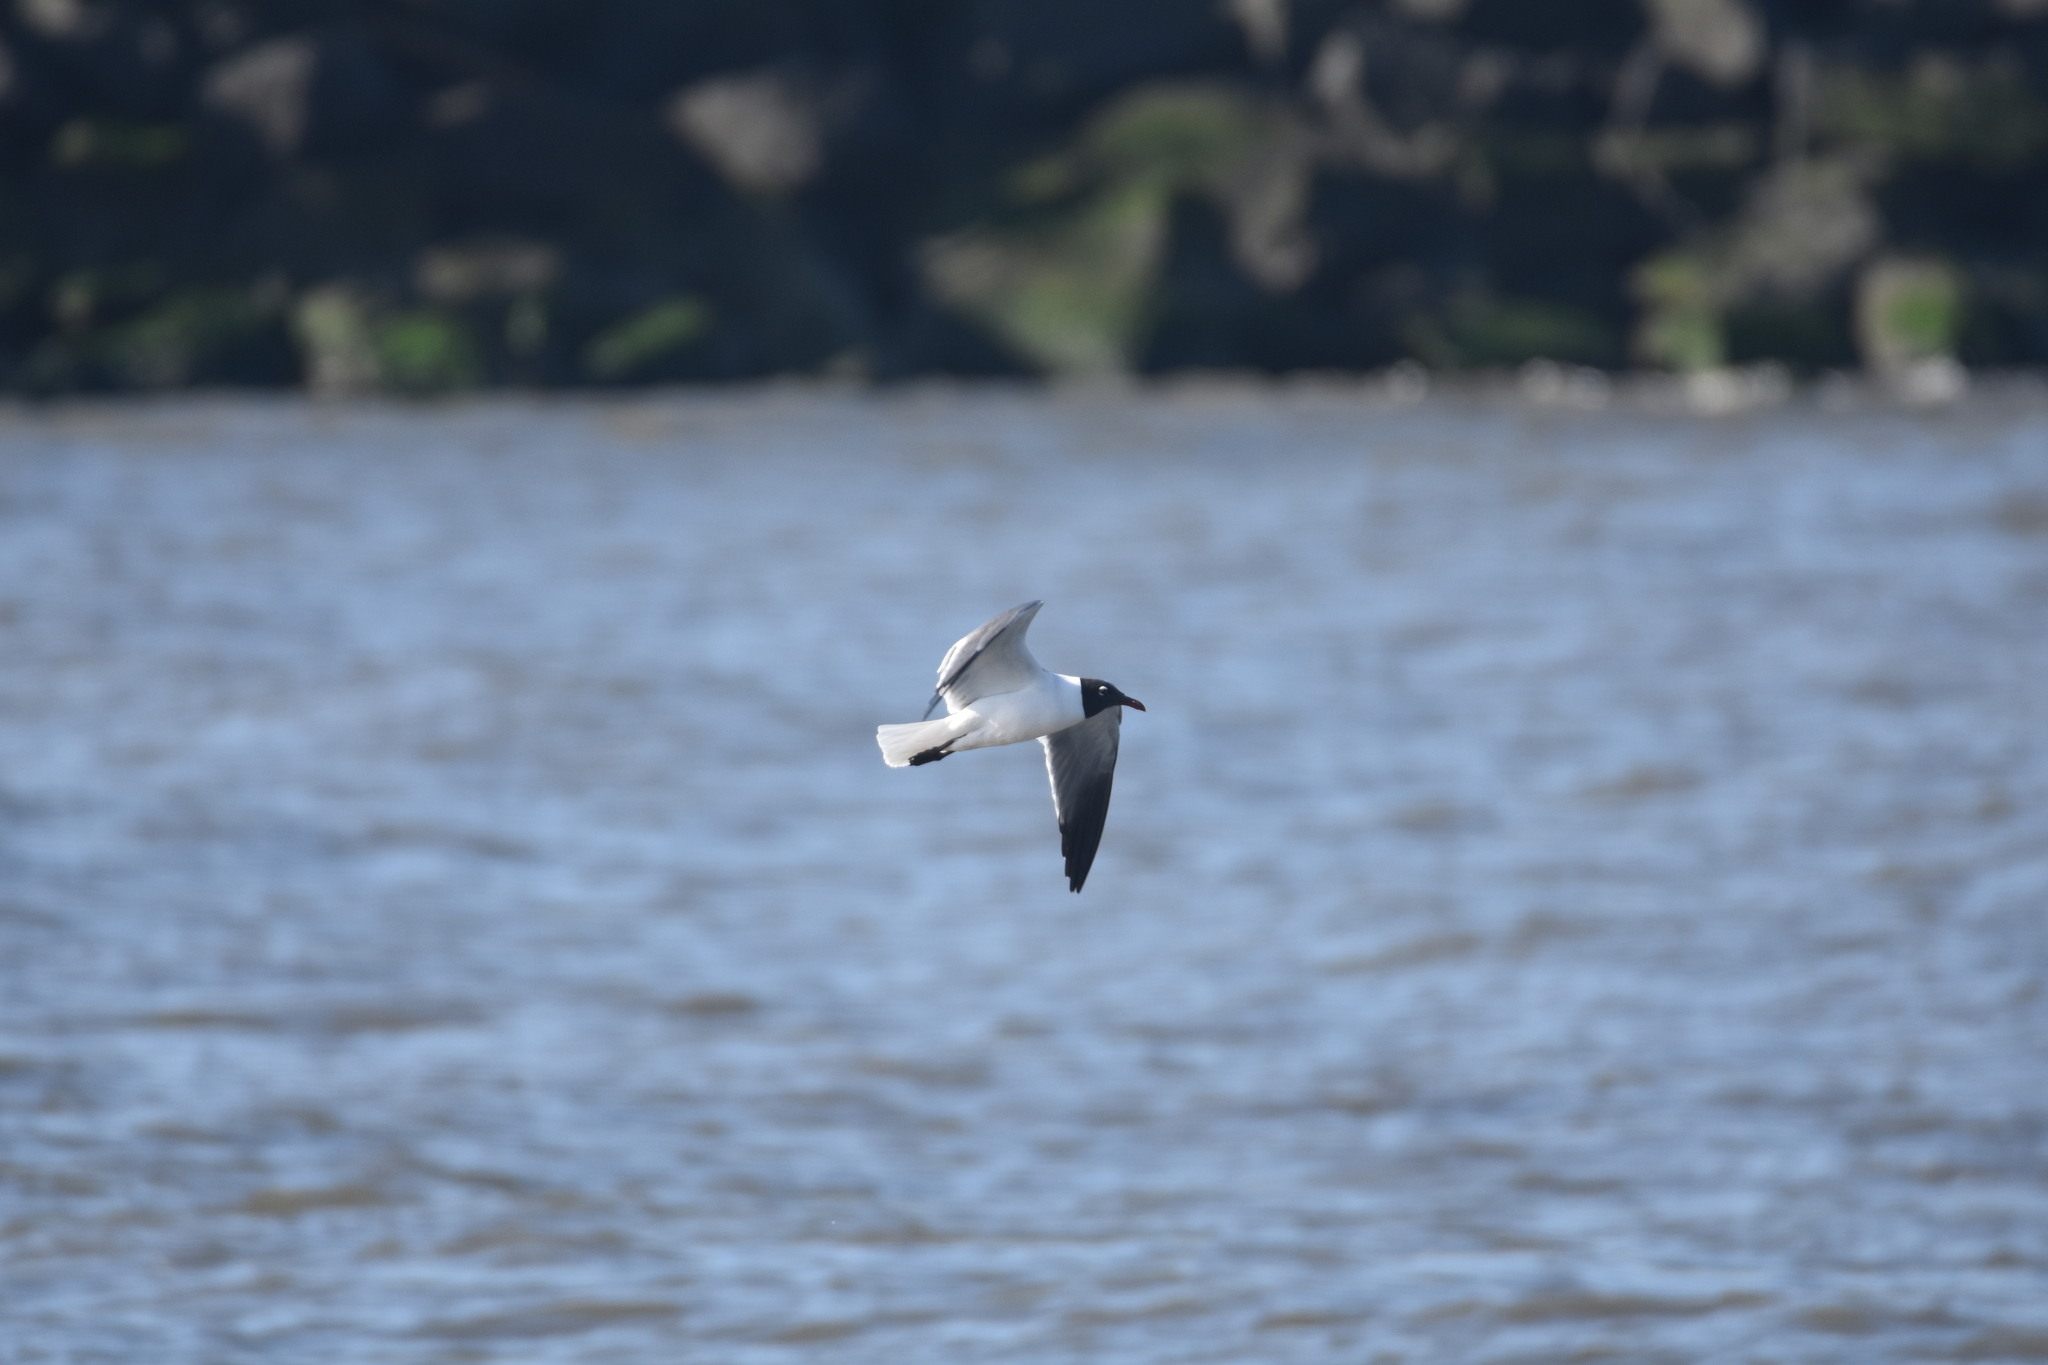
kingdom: Animalia
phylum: Chordata
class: Aves
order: Charadriiformes
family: Laridae
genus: Leucophaeus
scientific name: Leucophaeus atricilla
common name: Laughing gull
